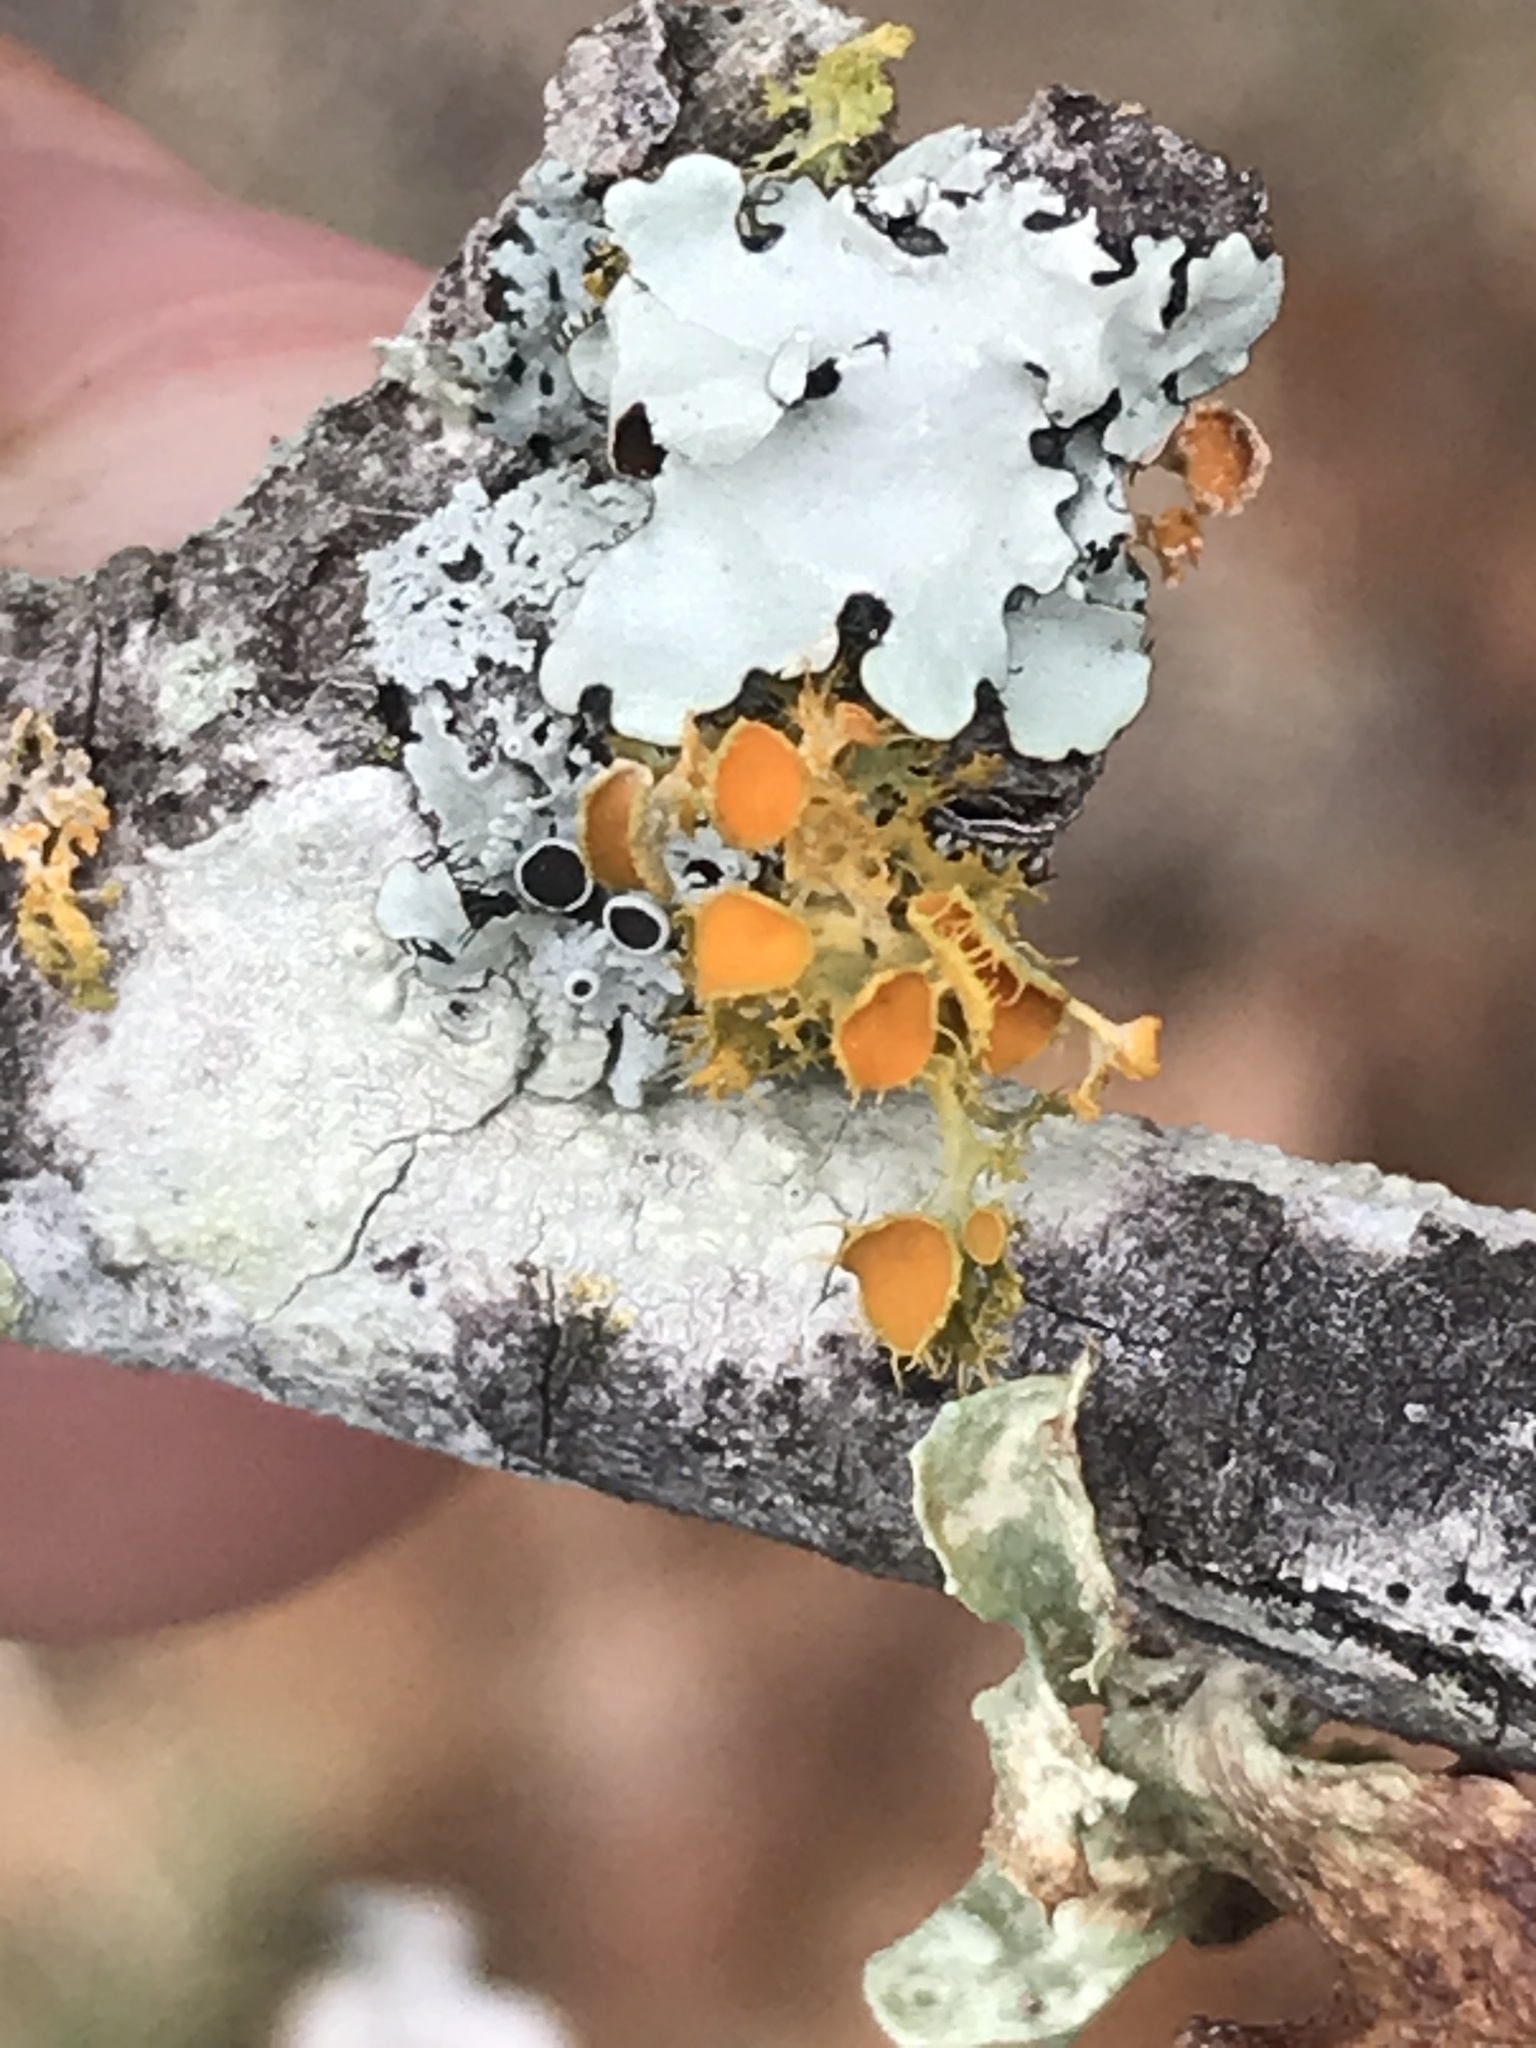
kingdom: Fungi
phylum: Ascomycota
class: Lecanoromycetes
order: Teloschistales
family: Teloschistaceae
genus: Niorma
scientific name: Niorma chrysophthalma
